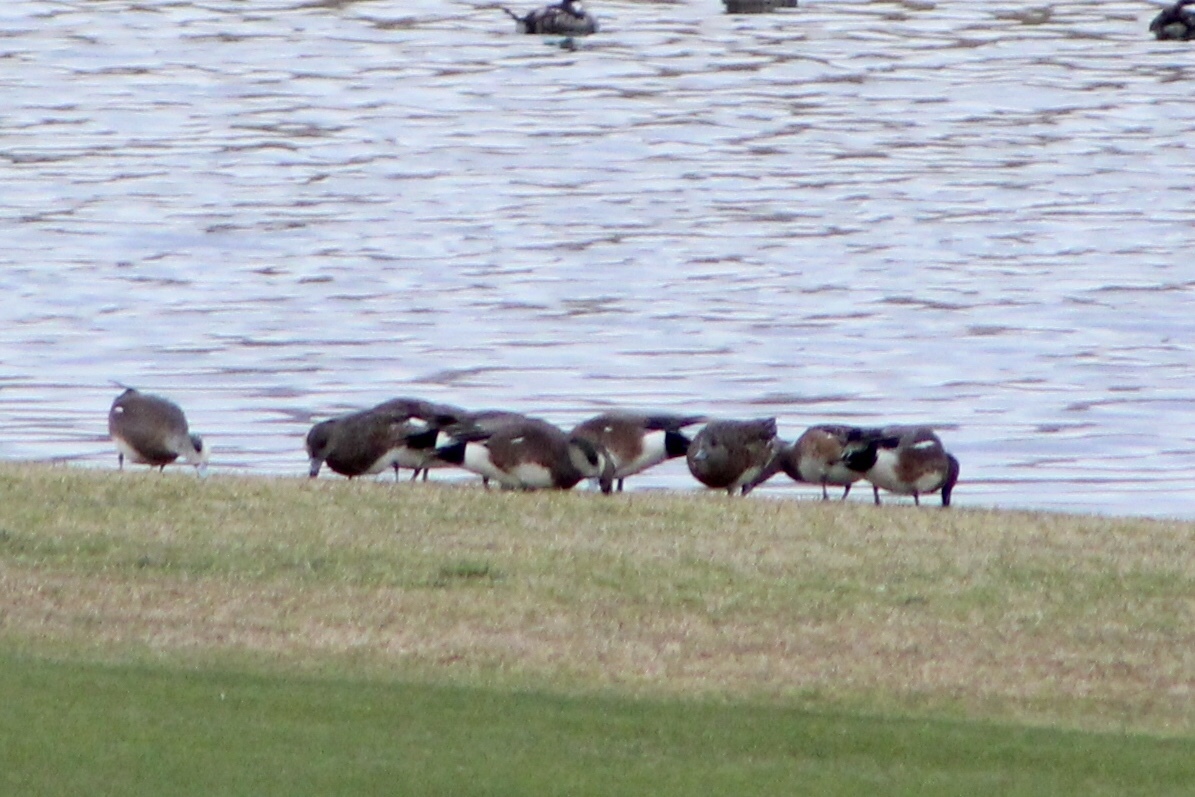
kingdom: Animalia
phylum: Chordata
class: Aves
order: Anseriformes
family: Anatidae
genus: Mareca
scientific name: Mareca americana
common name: American wigeon
